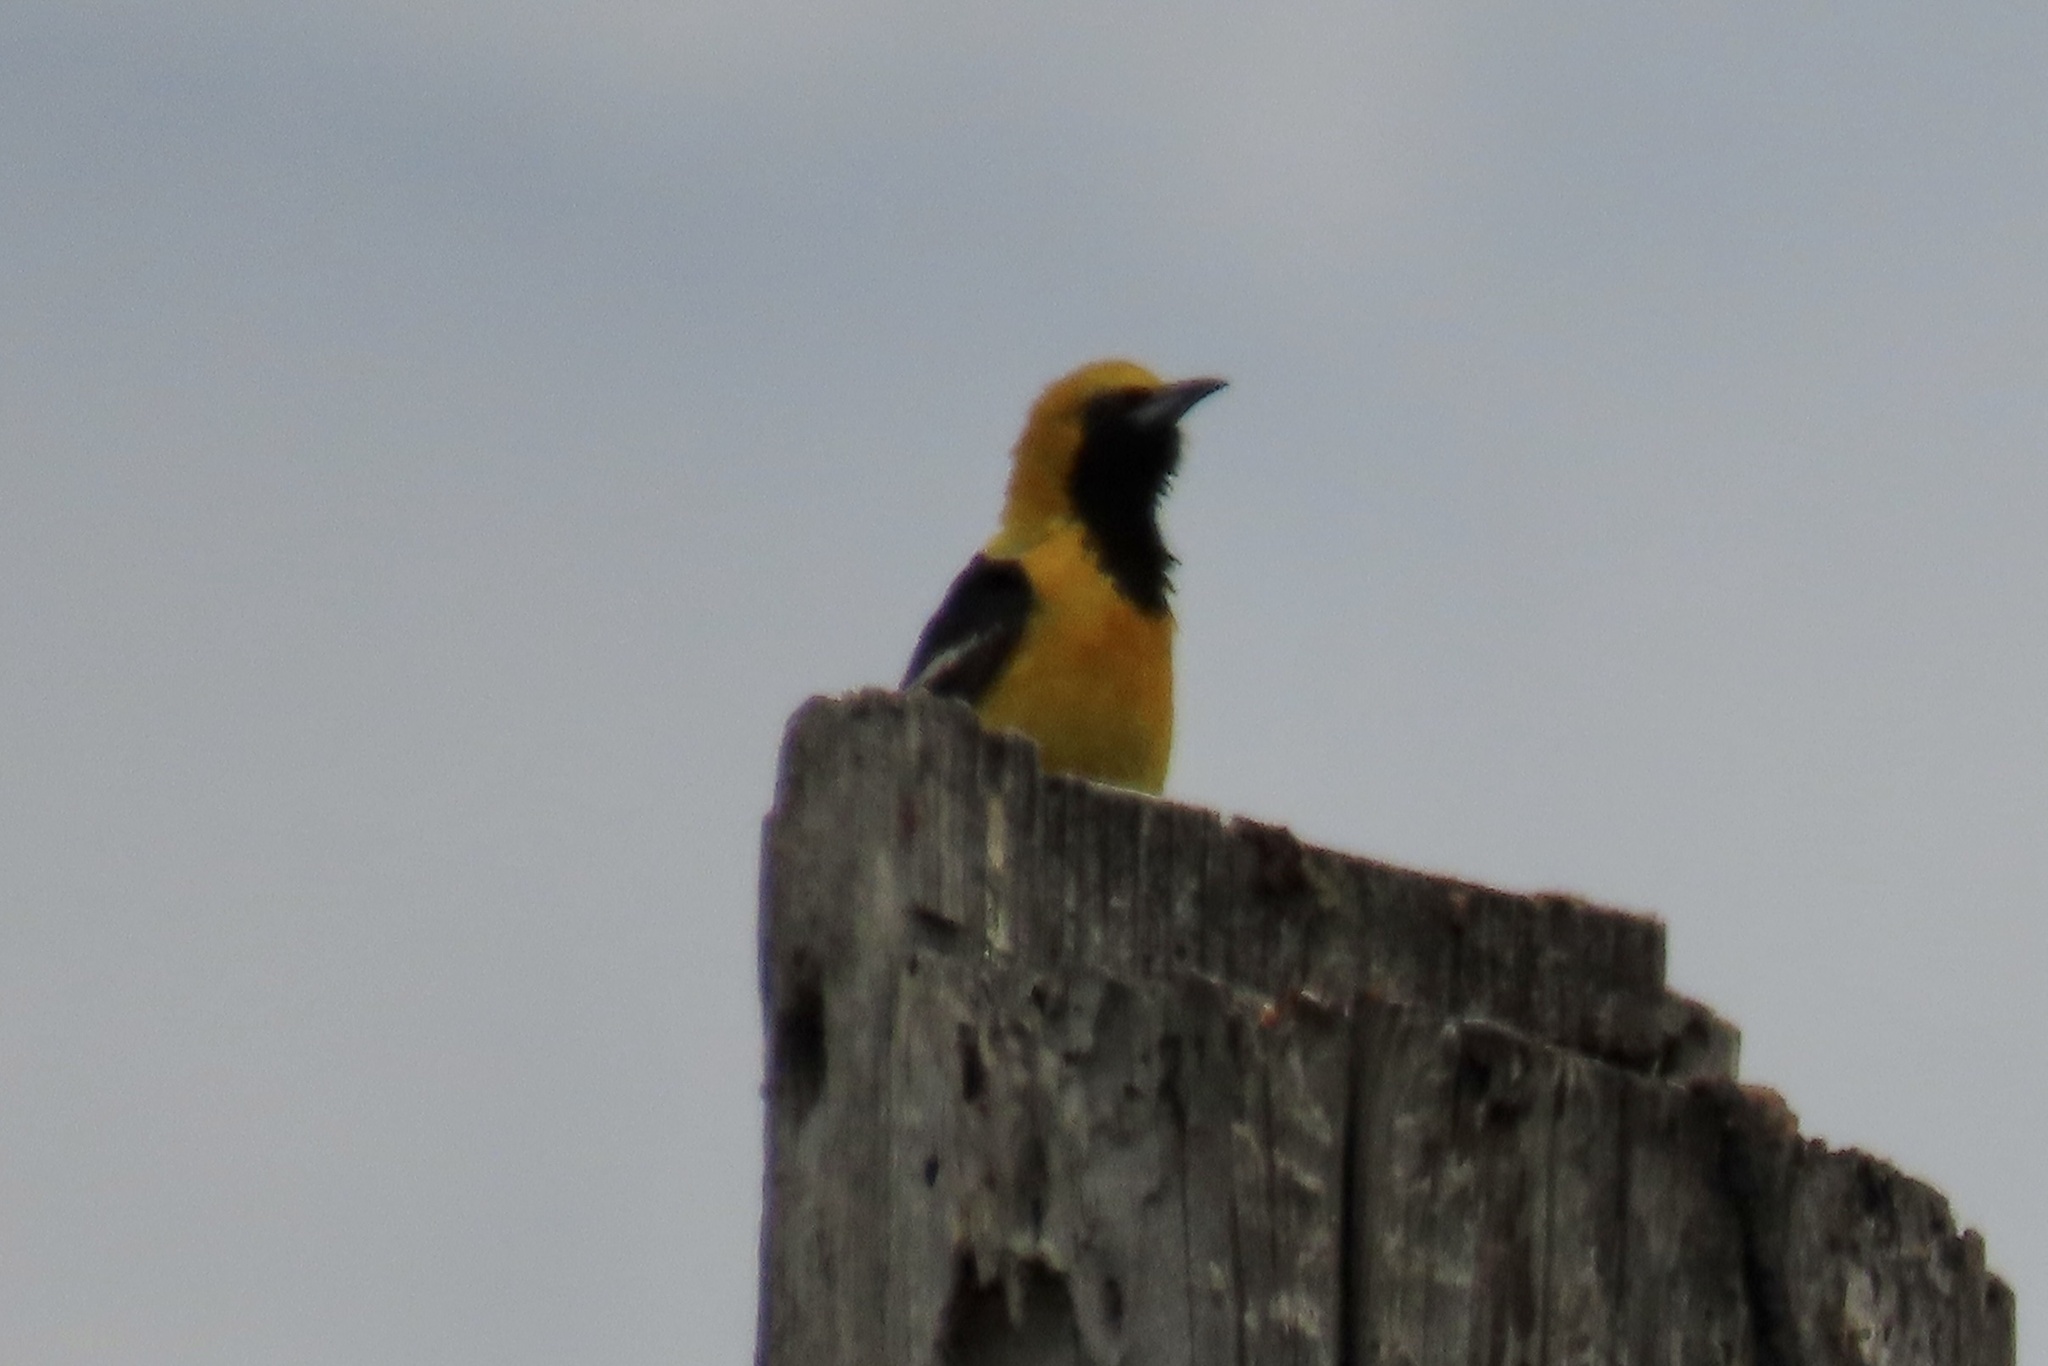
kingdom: Animalia
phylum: Chordata
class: Aves
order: Passeriformes
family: Icteridae
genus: Icterus
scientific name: Icterus cucullatus
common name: Hooded oriole
